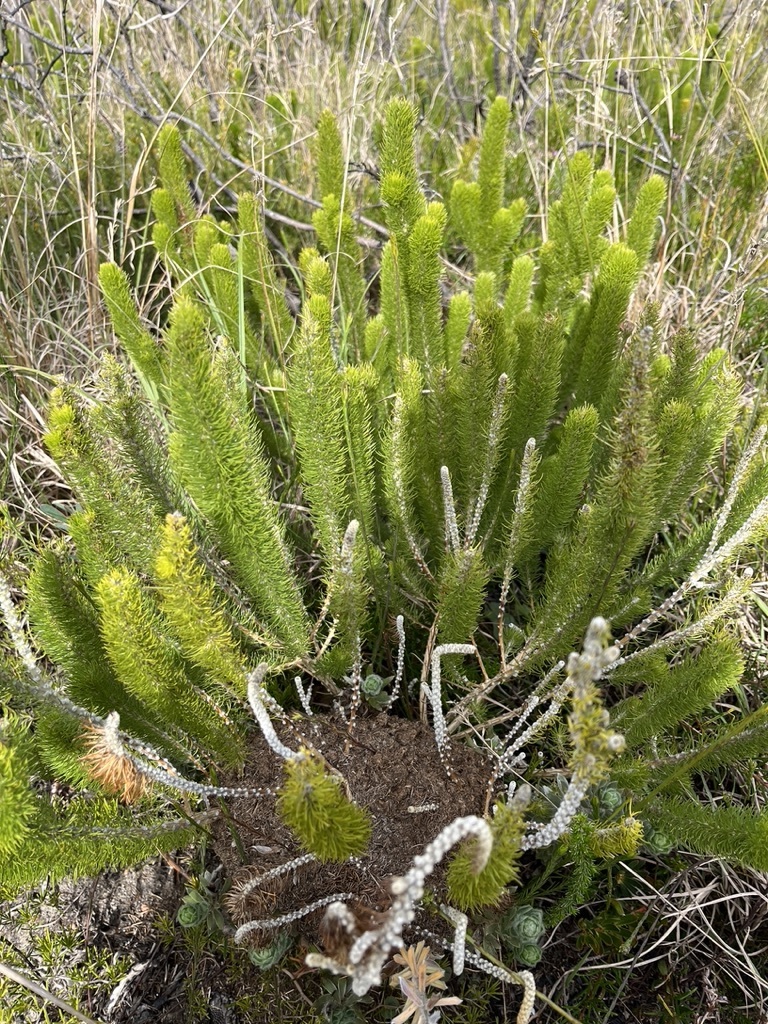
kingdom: Plantae
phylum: Tracheophyta
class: Magnoliopsida
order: Fabales
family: Fabaceae
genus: Aspalathus
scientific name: Aspalathus incurvifolia
